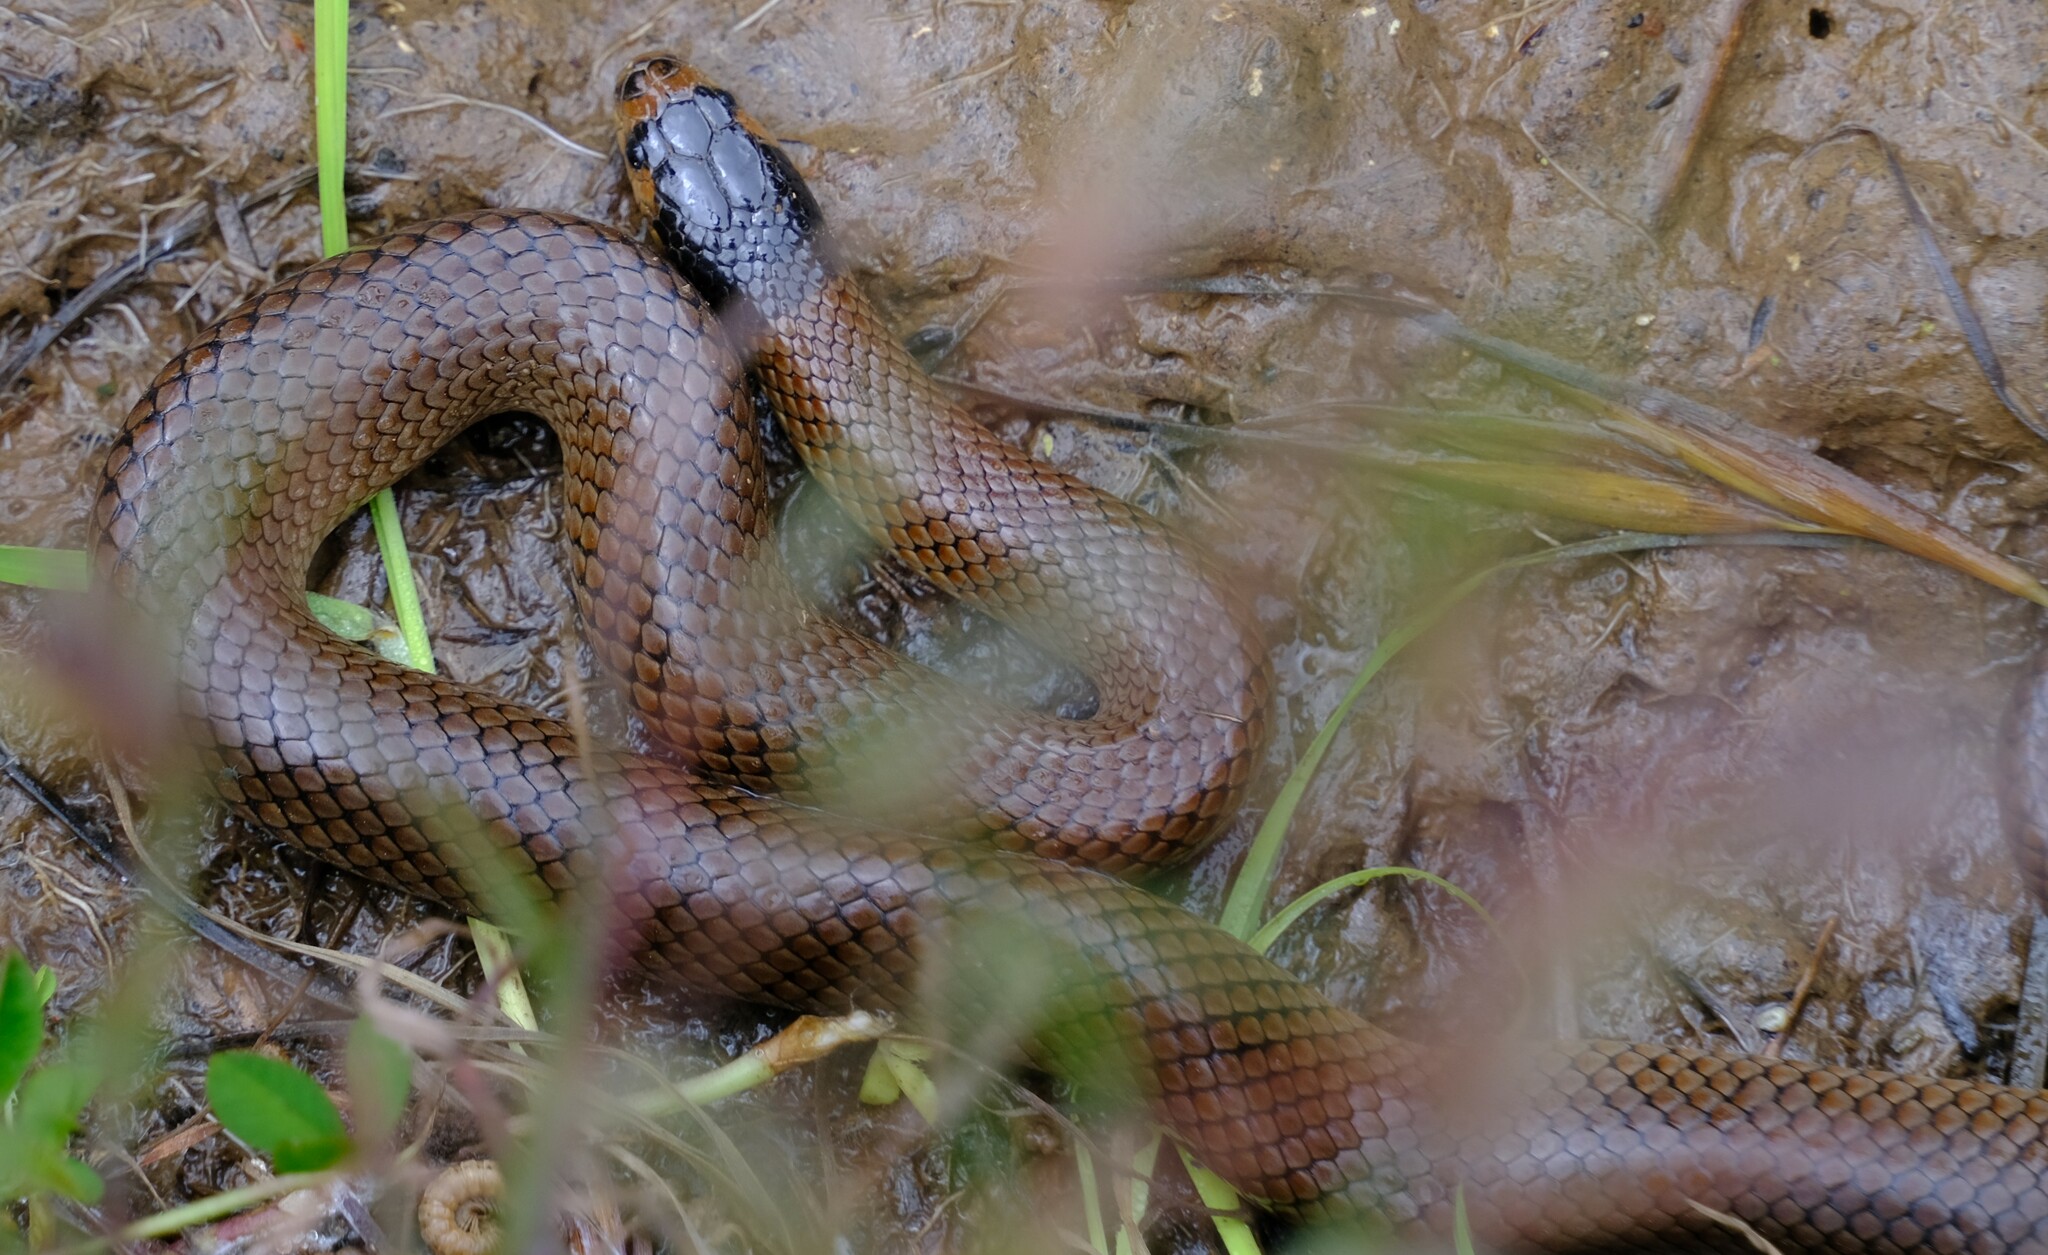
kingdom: Animalia
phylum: Chordata
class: Squamata
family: Elapidae
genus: Suta
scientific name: Suta flagellum
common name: Little whip snake
